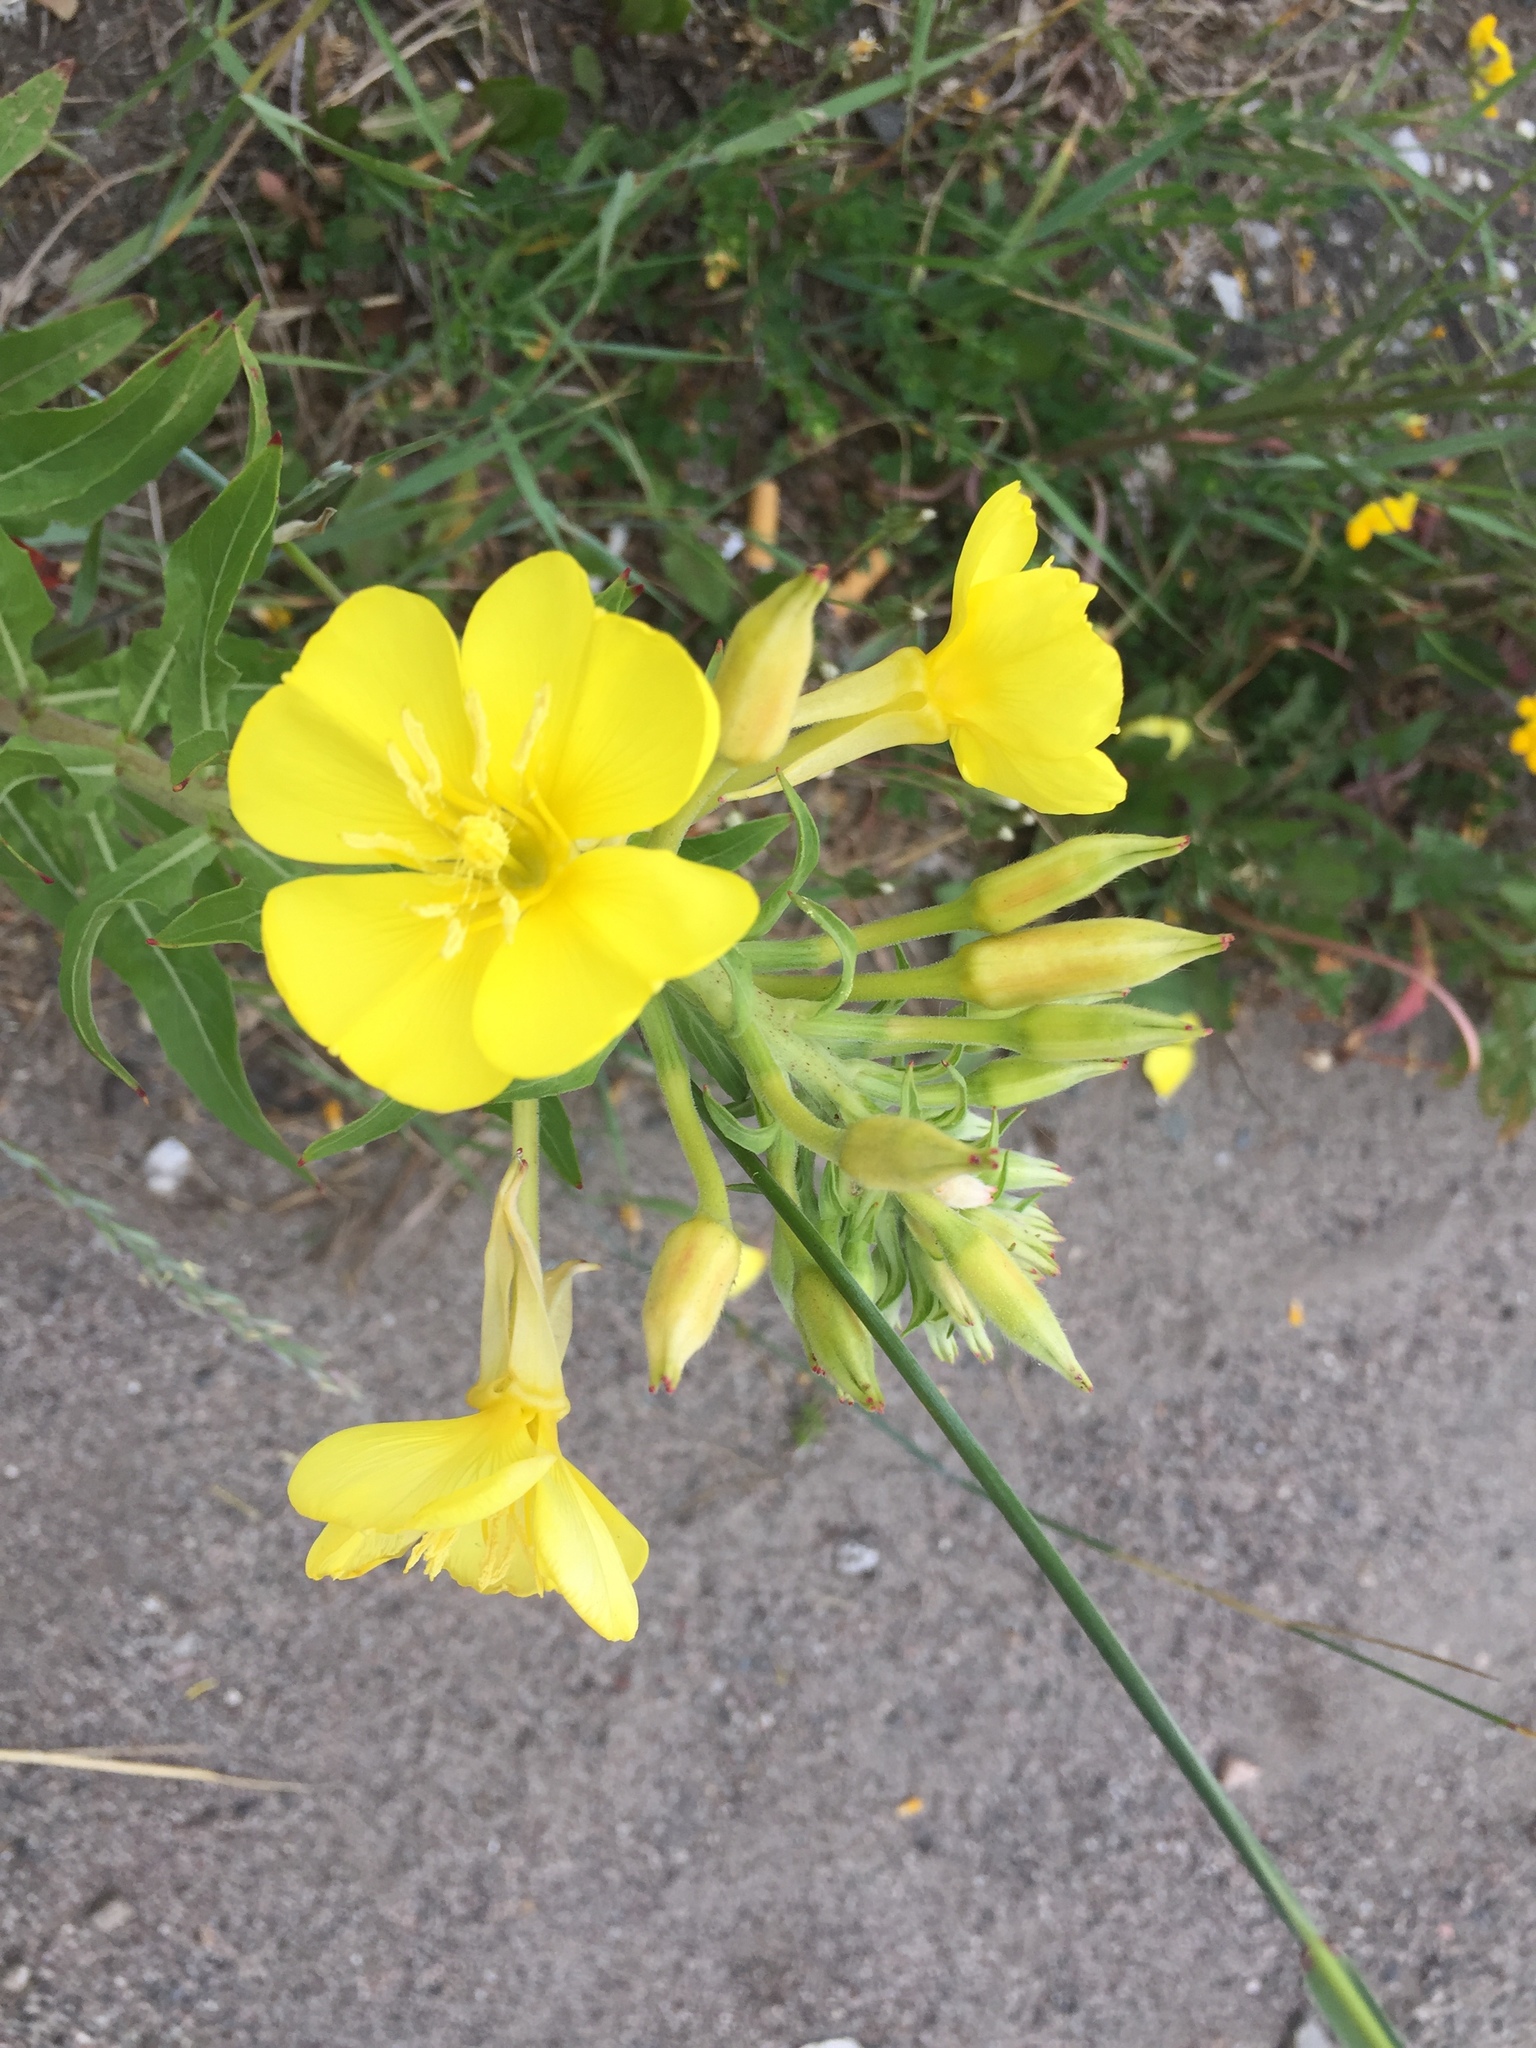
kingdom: Plantae
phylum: Tracheophyta
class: Magnoliopsida
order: Myrtales
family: Onagraceae
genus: Oenothera
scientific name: Oenothera biennis
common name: Common evening-primrose
